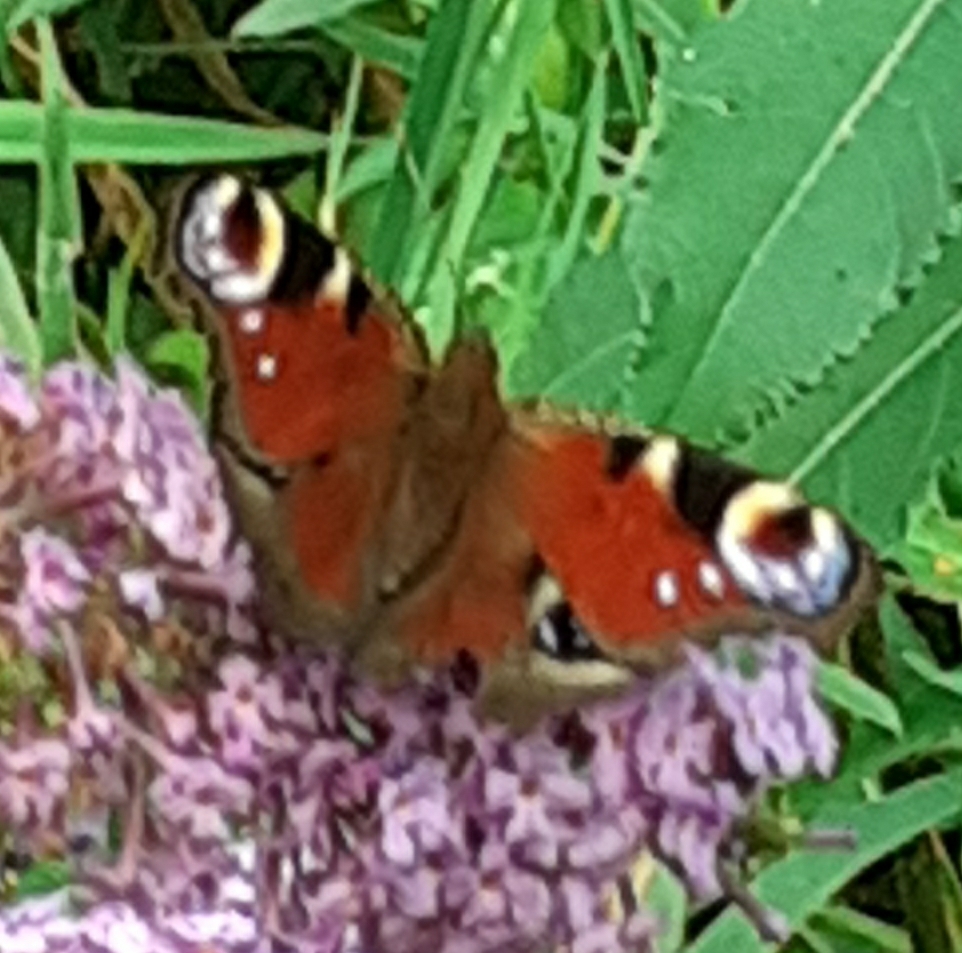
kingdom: Animalia
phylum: Arthropoda
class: Insecta
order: Lepidoptera
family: Nymphalidae
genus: Aglais
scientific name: Aglais io
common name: Peacock
